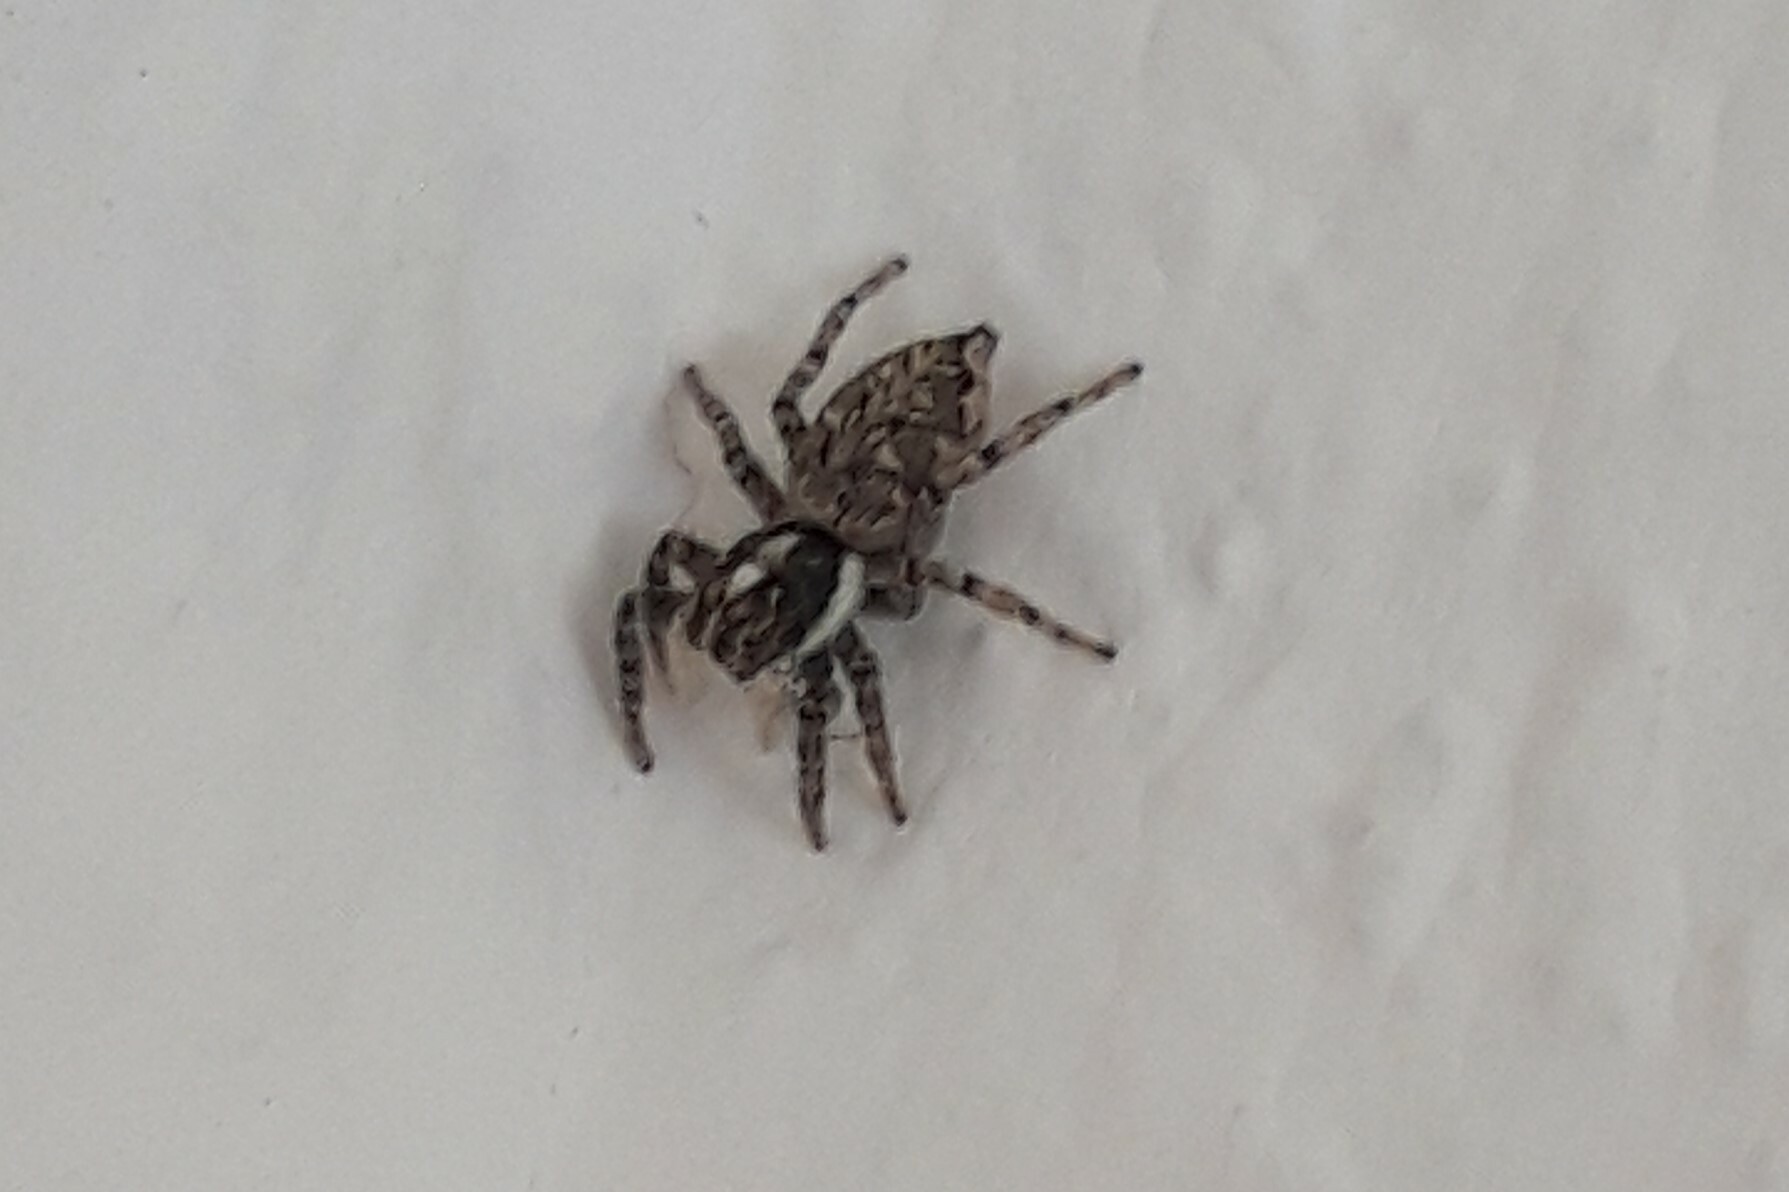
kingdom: Animalia
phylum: Arthropoda
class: Arachnida
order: Araneae
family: Salticidae
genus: Menemerus
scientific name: Menemerus semilimbatus
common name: Jumping spider
